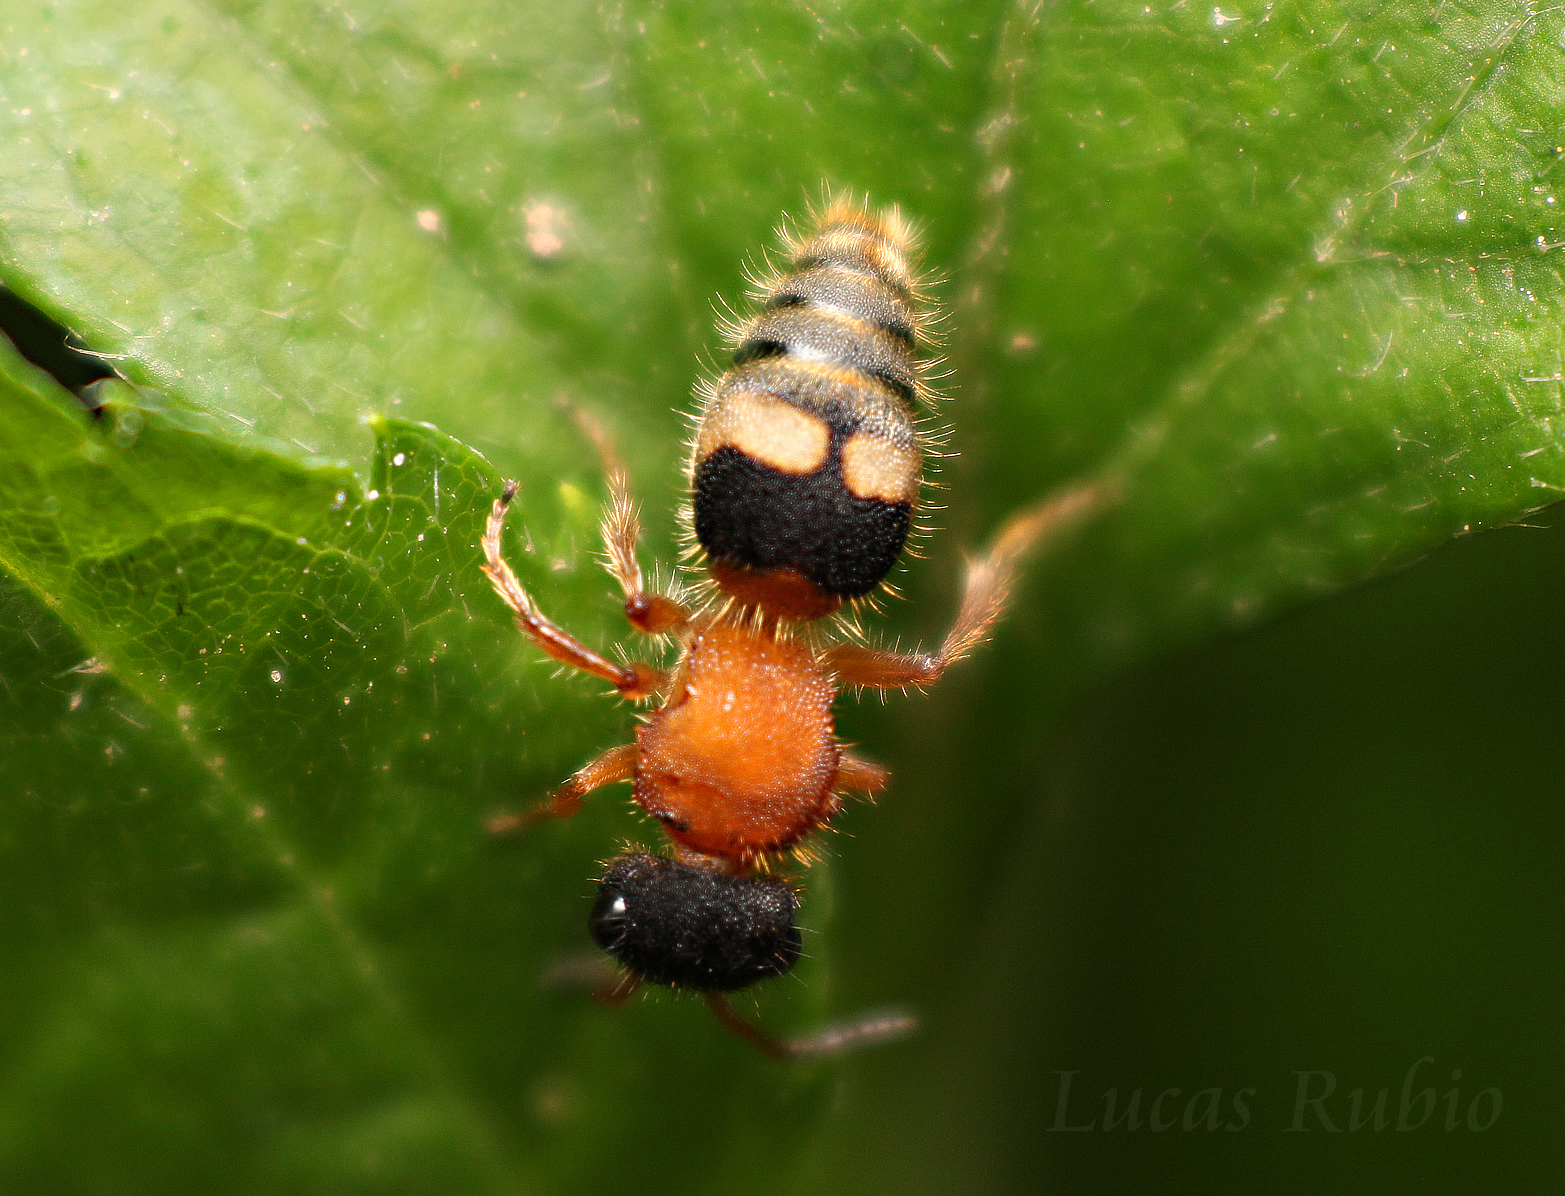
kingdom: Animalia
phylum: Arthropoda
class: Insecta
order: Hymenoptera
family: Mutillidae
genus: Pseudomethoca
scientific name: Pseudomethoca
